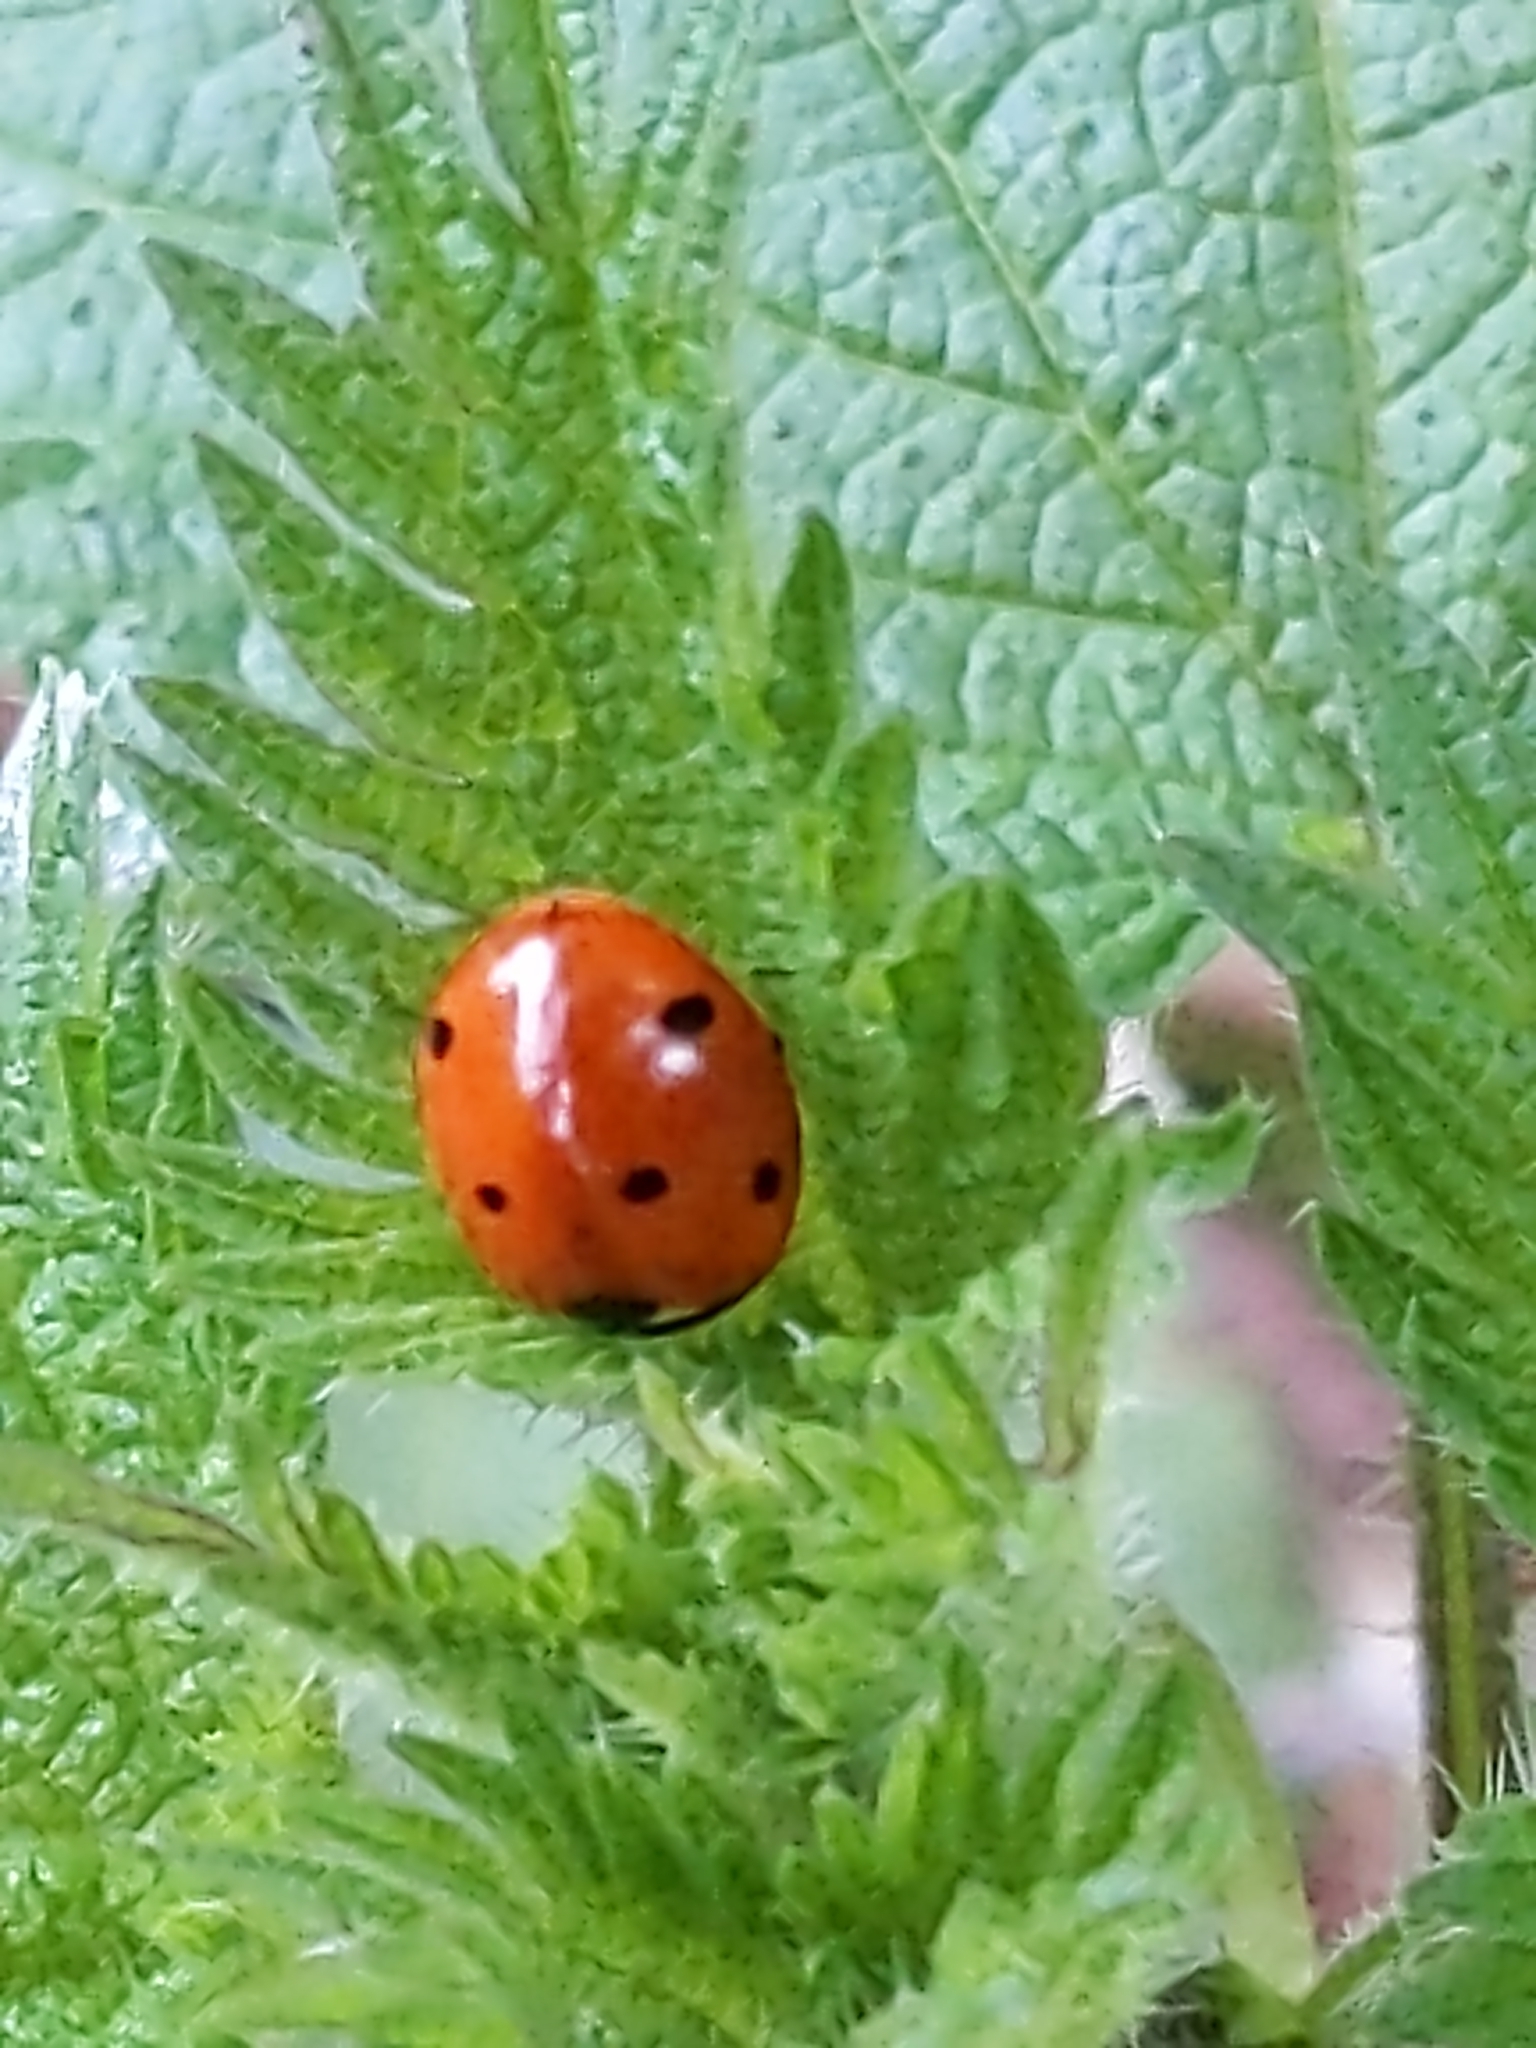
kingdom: Animalia
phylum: Arthropoda
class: Insecta
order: Coleoptera
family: Coccinellidae
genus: Coccinella
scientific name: Coccinella septempunctata
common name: Sevenspotted lady beetle
